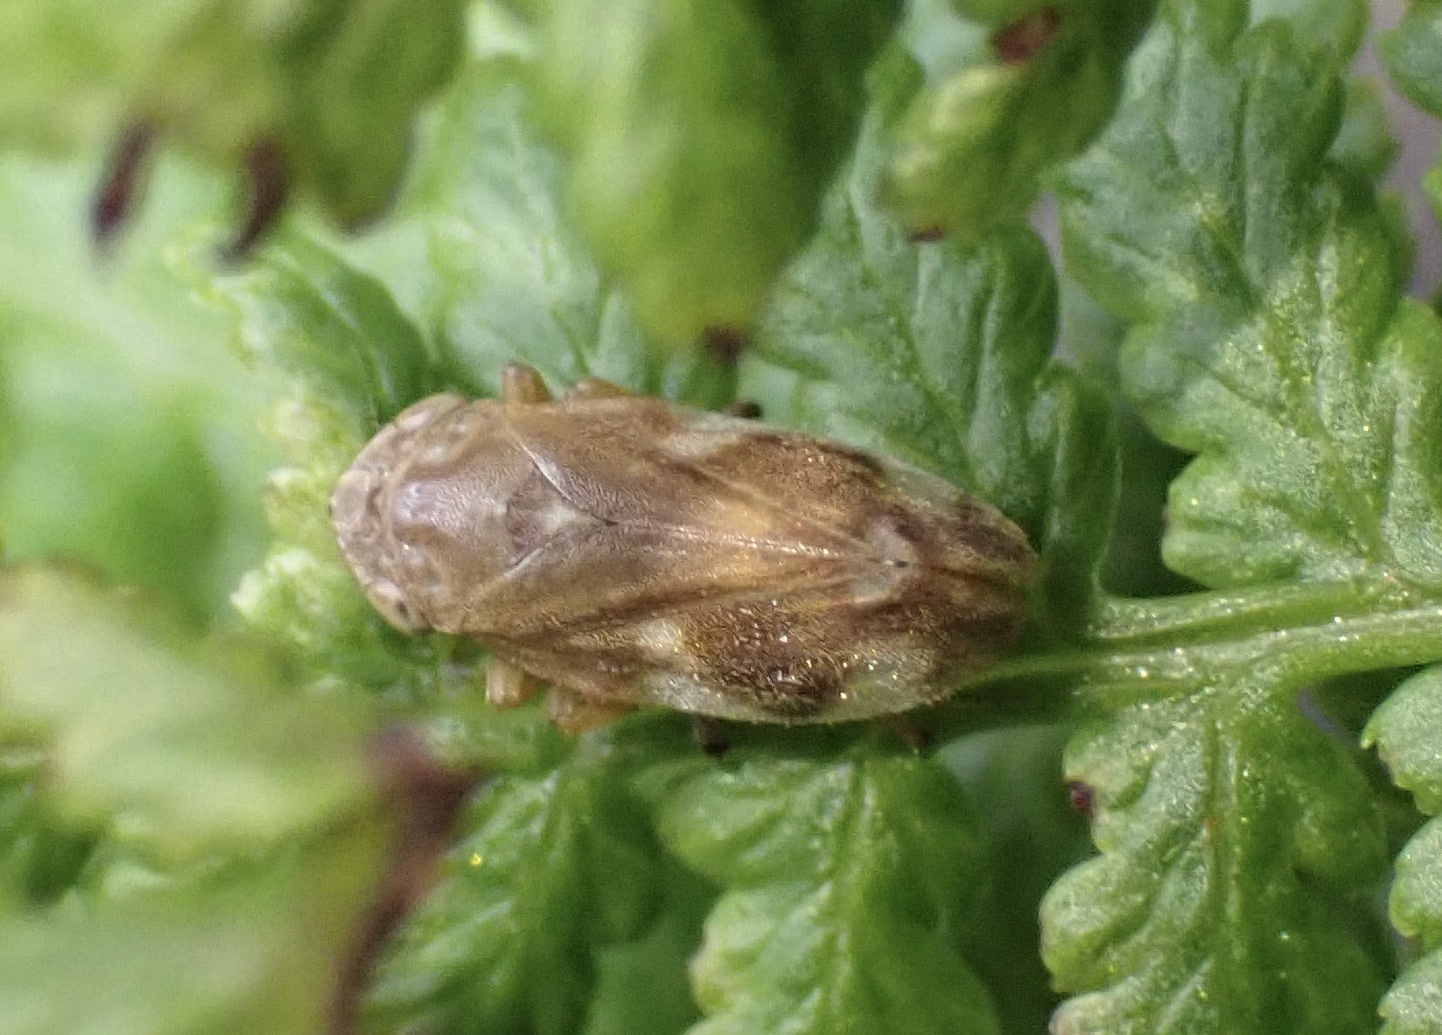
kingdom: Animalia
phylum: Arthropoda
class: Insecta
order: Hemiptera
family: Aphrophoridae
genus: Philaenus
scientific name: Philaenus spumarius
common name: Meadow spittlebug
